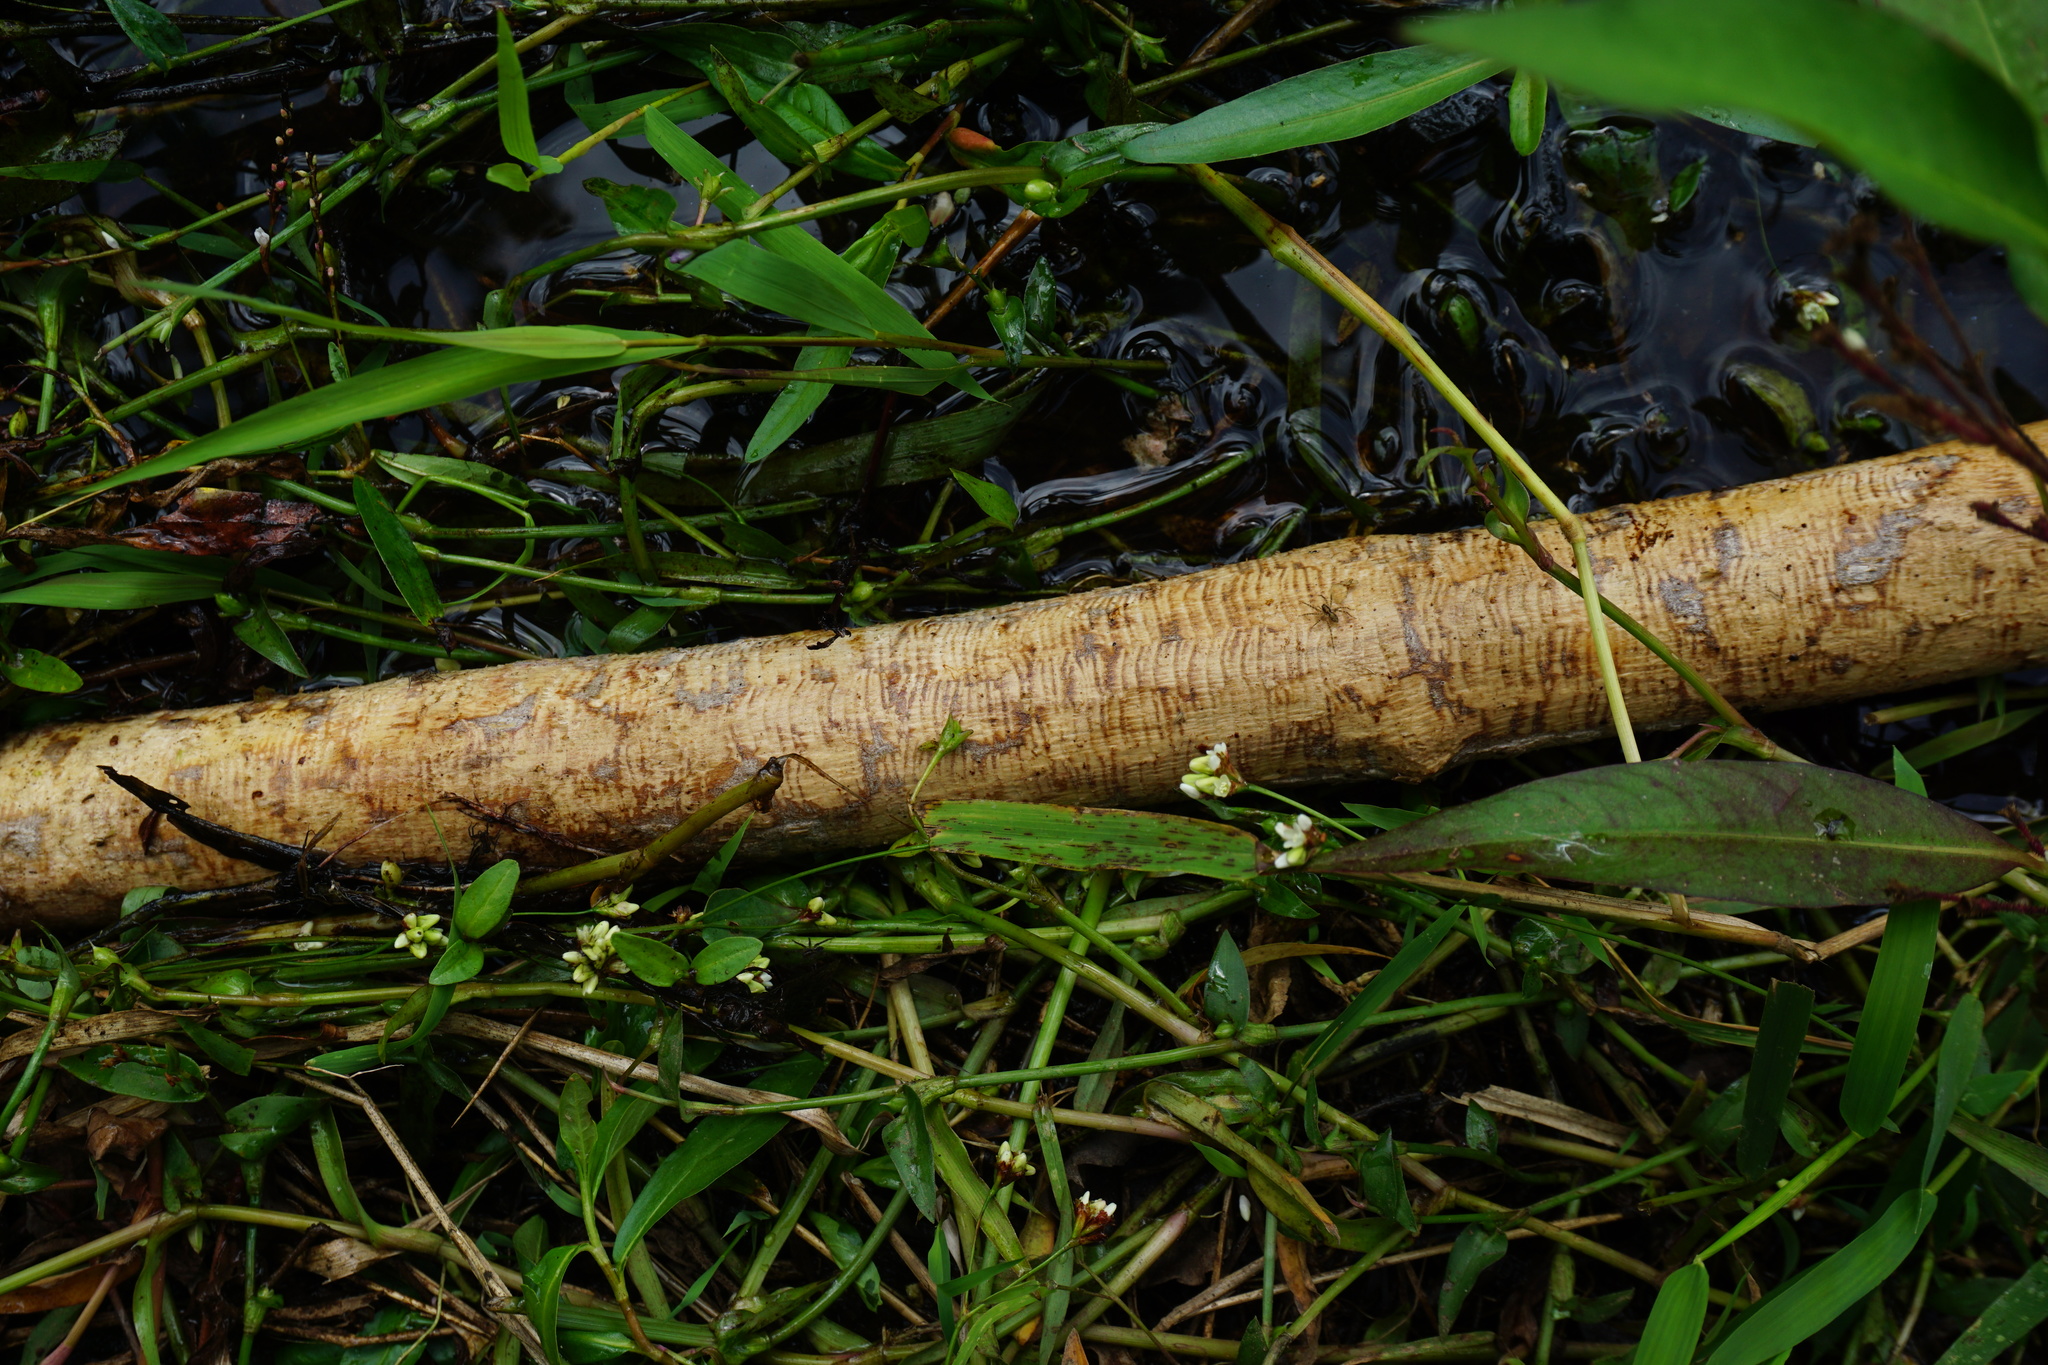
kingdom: Animalia
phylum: Chordata
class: Mammalia
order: Rodentia
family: Castoridae
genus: Castor
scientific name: Castor canadensis
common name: American beaver
